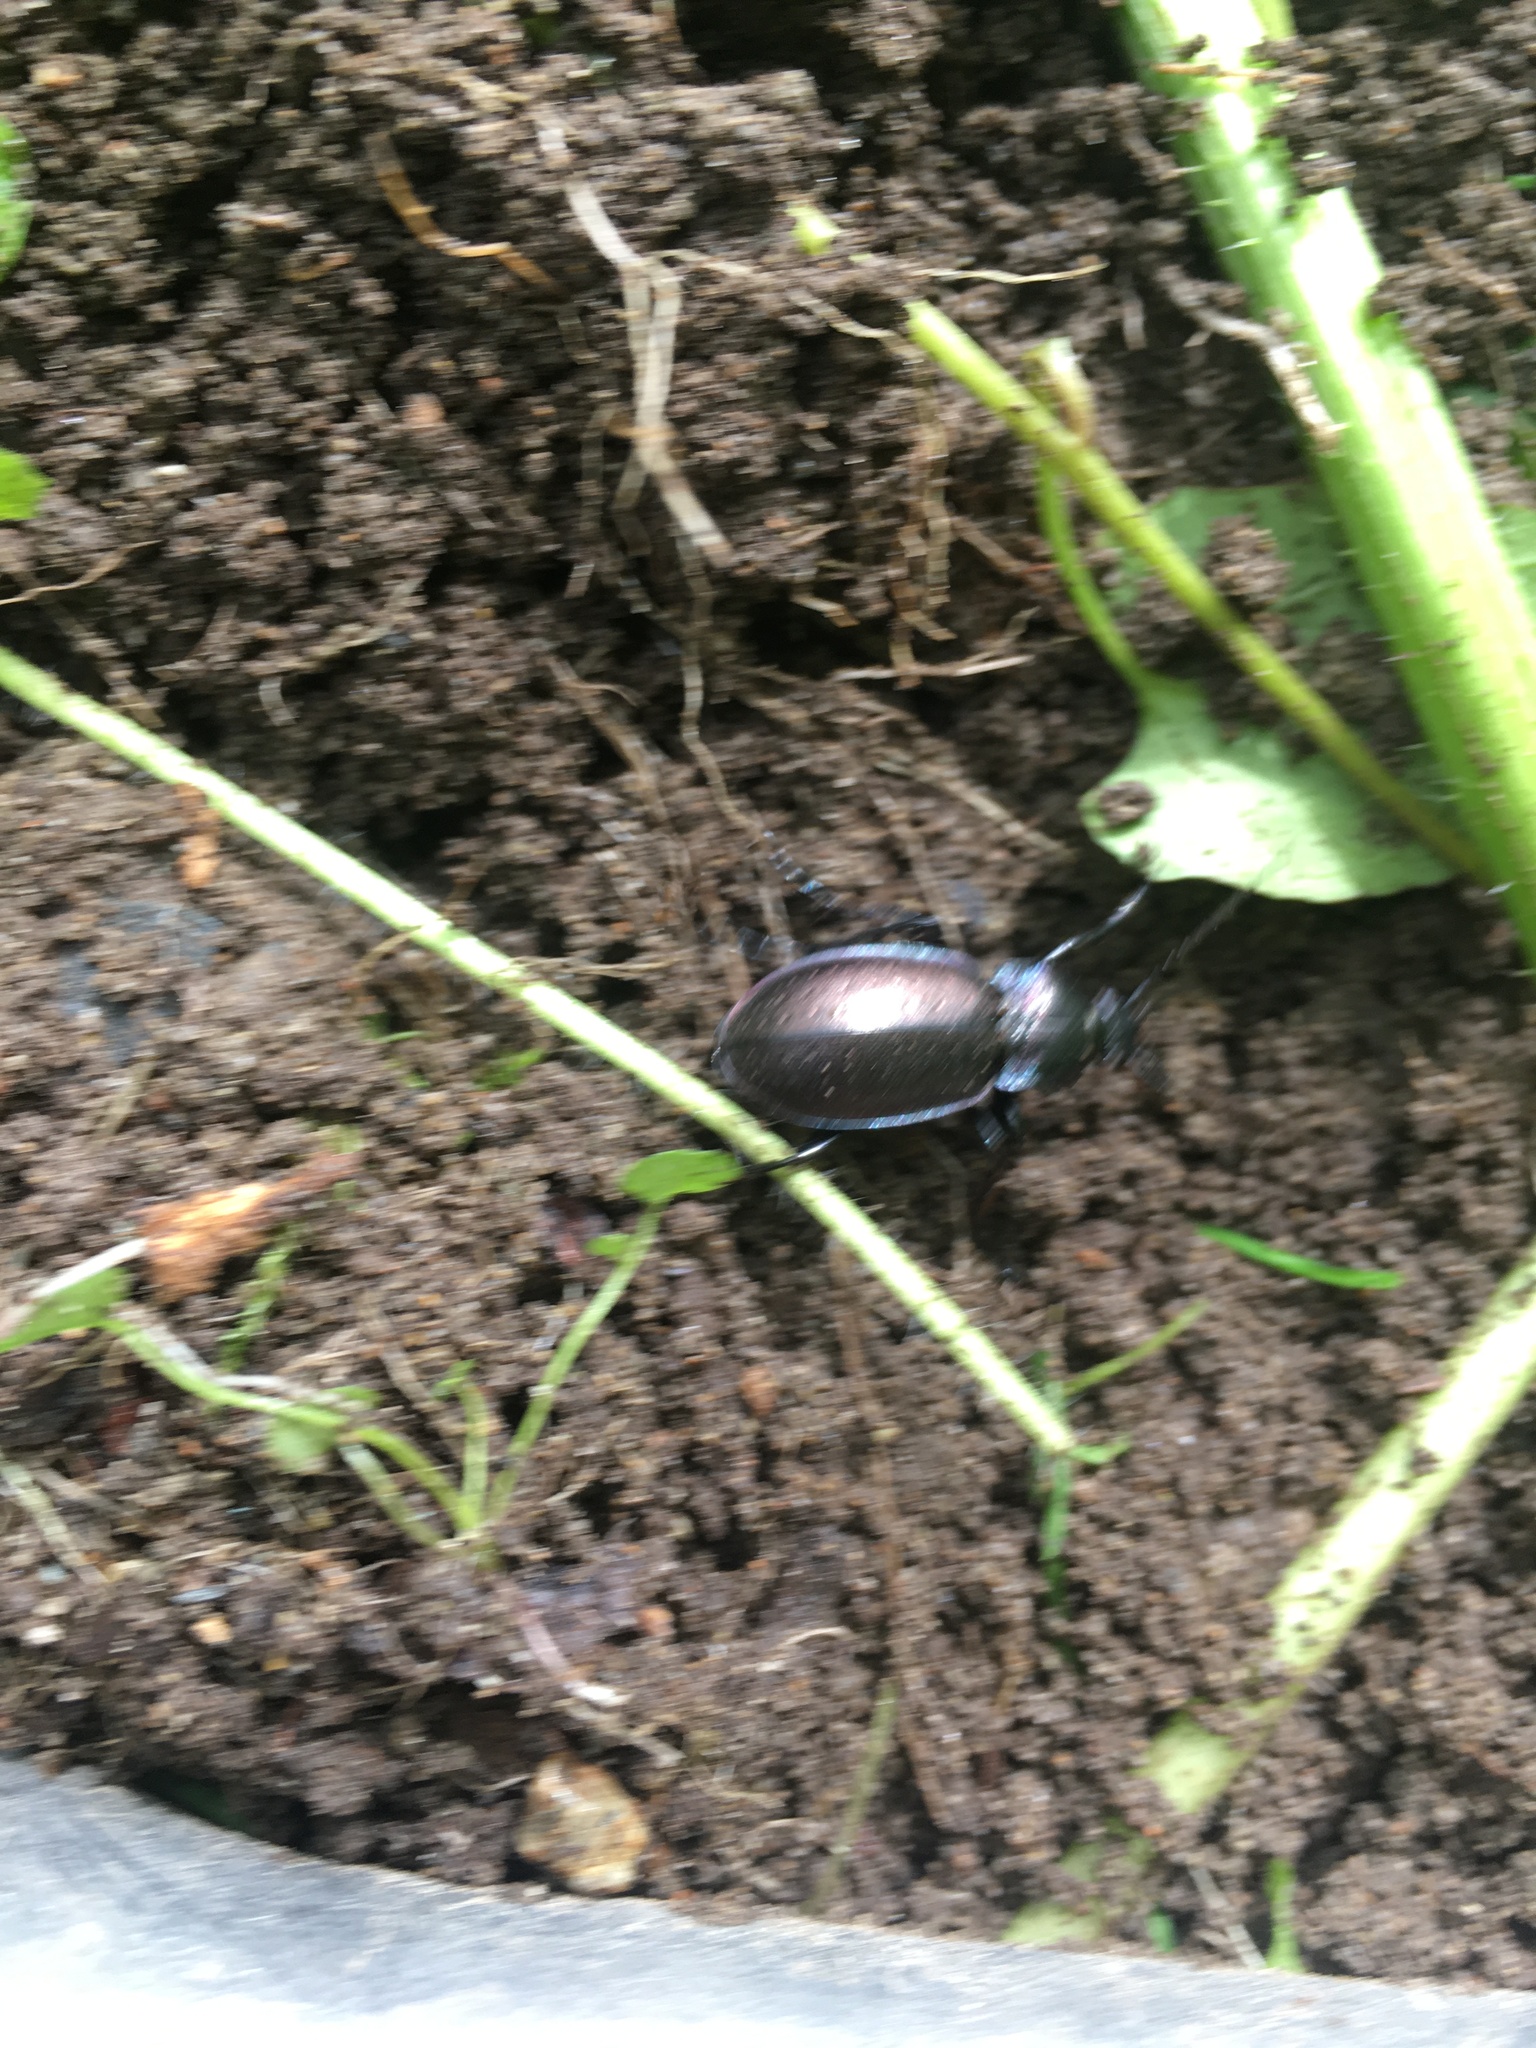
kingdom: Animalia
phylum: Arthropoda
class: Insecta
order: Coleoptera
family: Carabidae
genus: Carabus
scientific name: Carabus nemoralis
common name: European ground beetle
